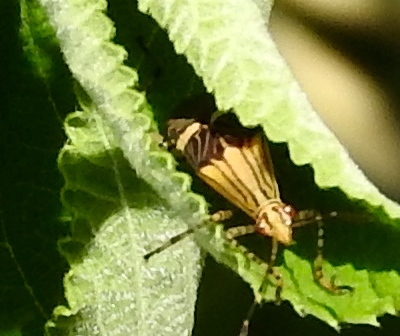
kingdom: Animalia
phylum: Arthropoda
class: Insecta
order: Hemiptera
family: Coreidae
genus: Hypselonotus
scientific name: Hypselonotus
